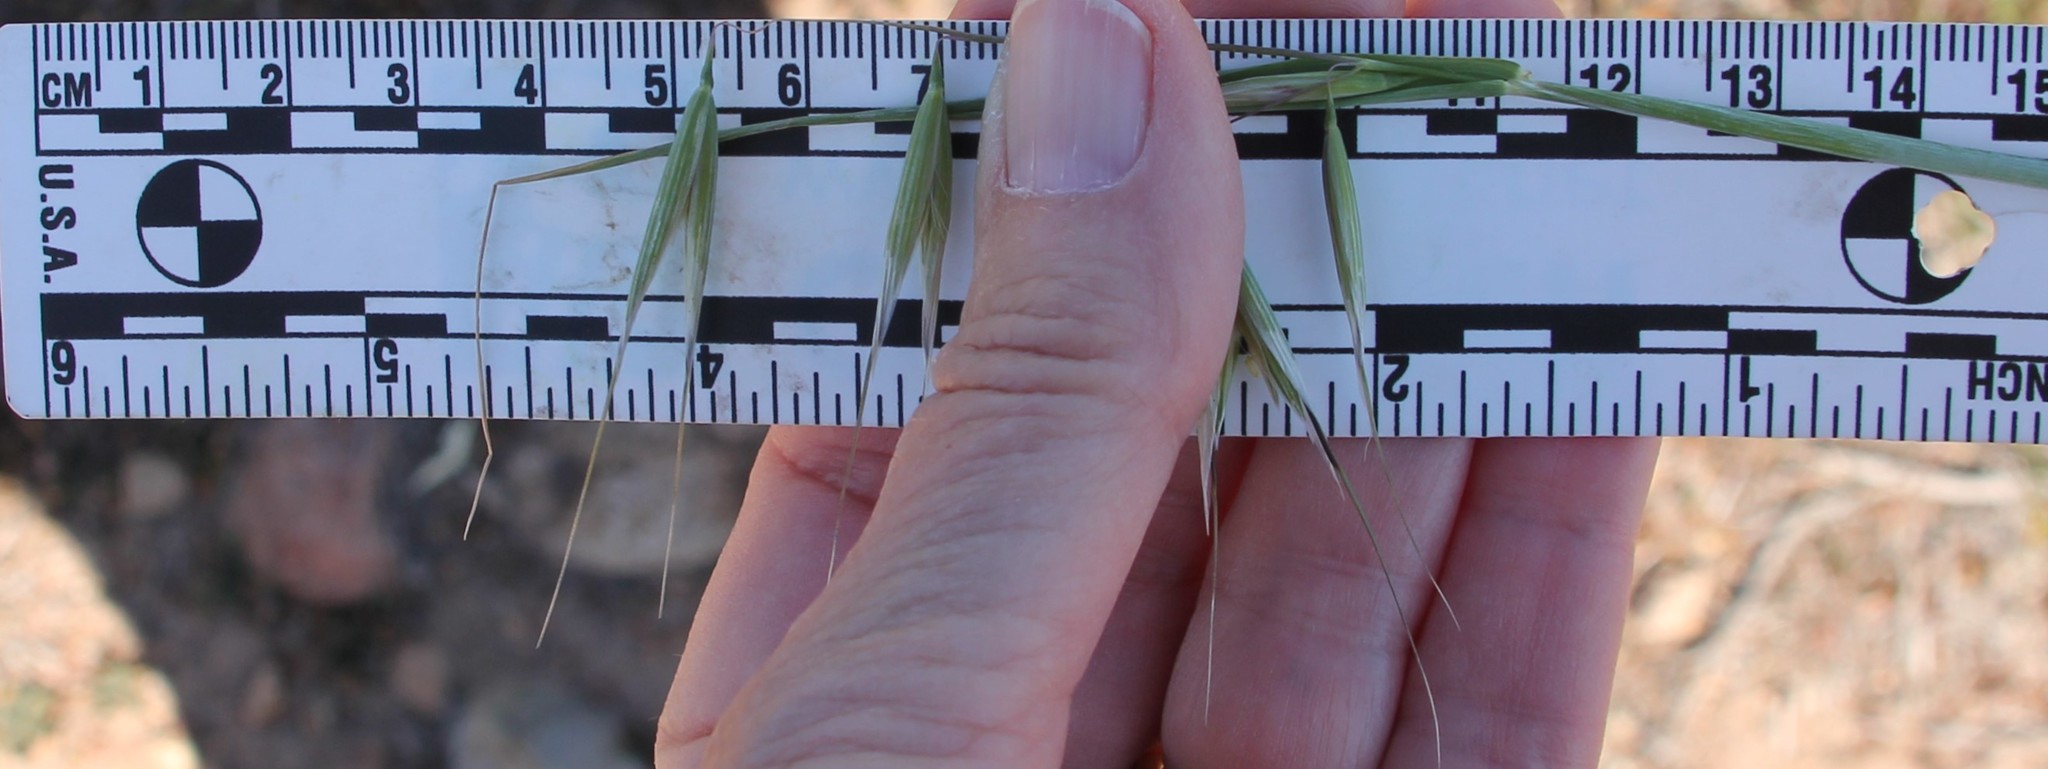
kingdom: Plantae
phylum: Tracheophyta
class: Liliopsida
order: Poales
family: Poaceae
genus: Avena
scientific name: Avena
